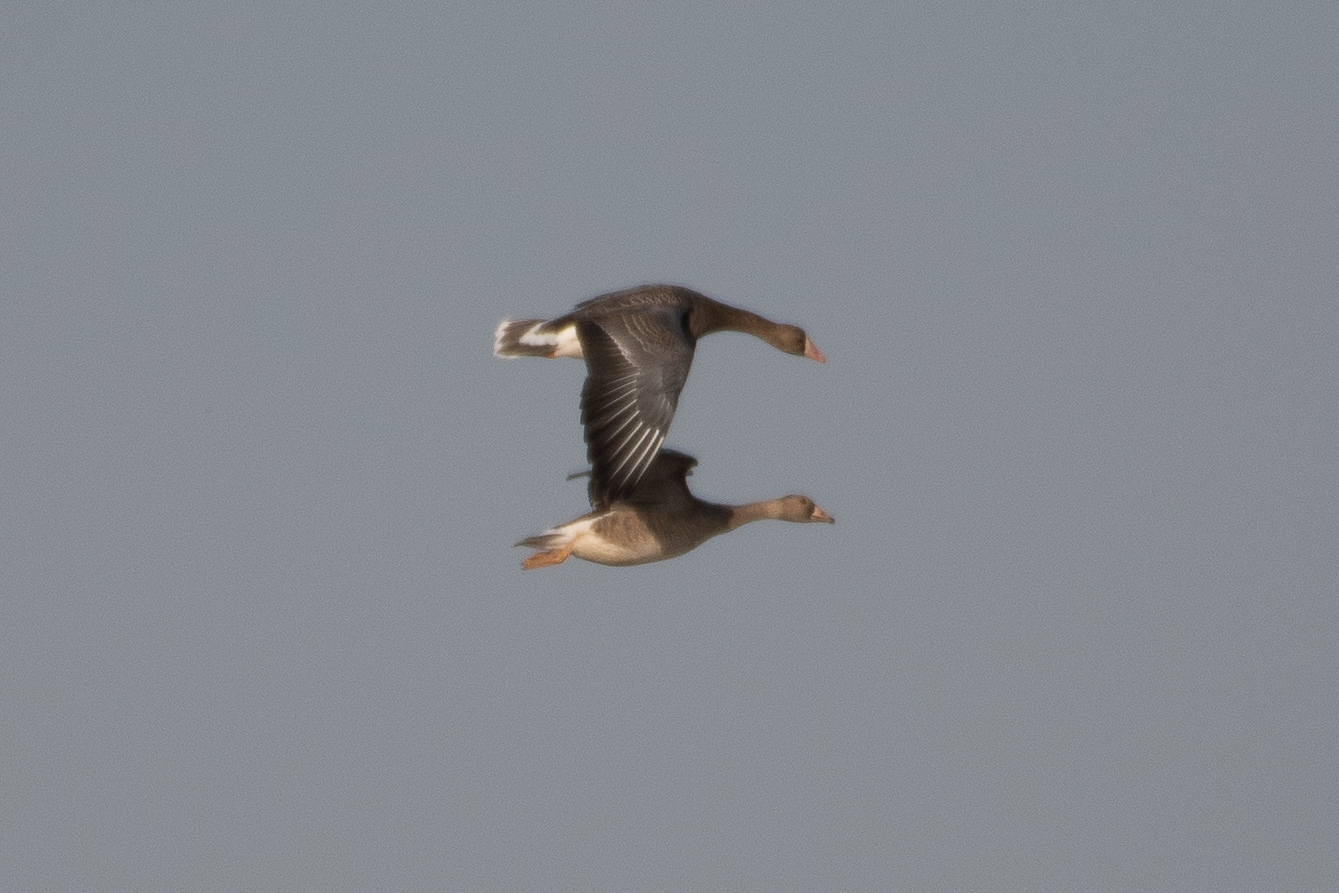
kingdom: Animalia
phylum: Chordata
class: Aves
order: Anseriformes
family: Anatidae
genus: Anser
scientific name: Anser albifrons
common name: Greater white-fronted goose
